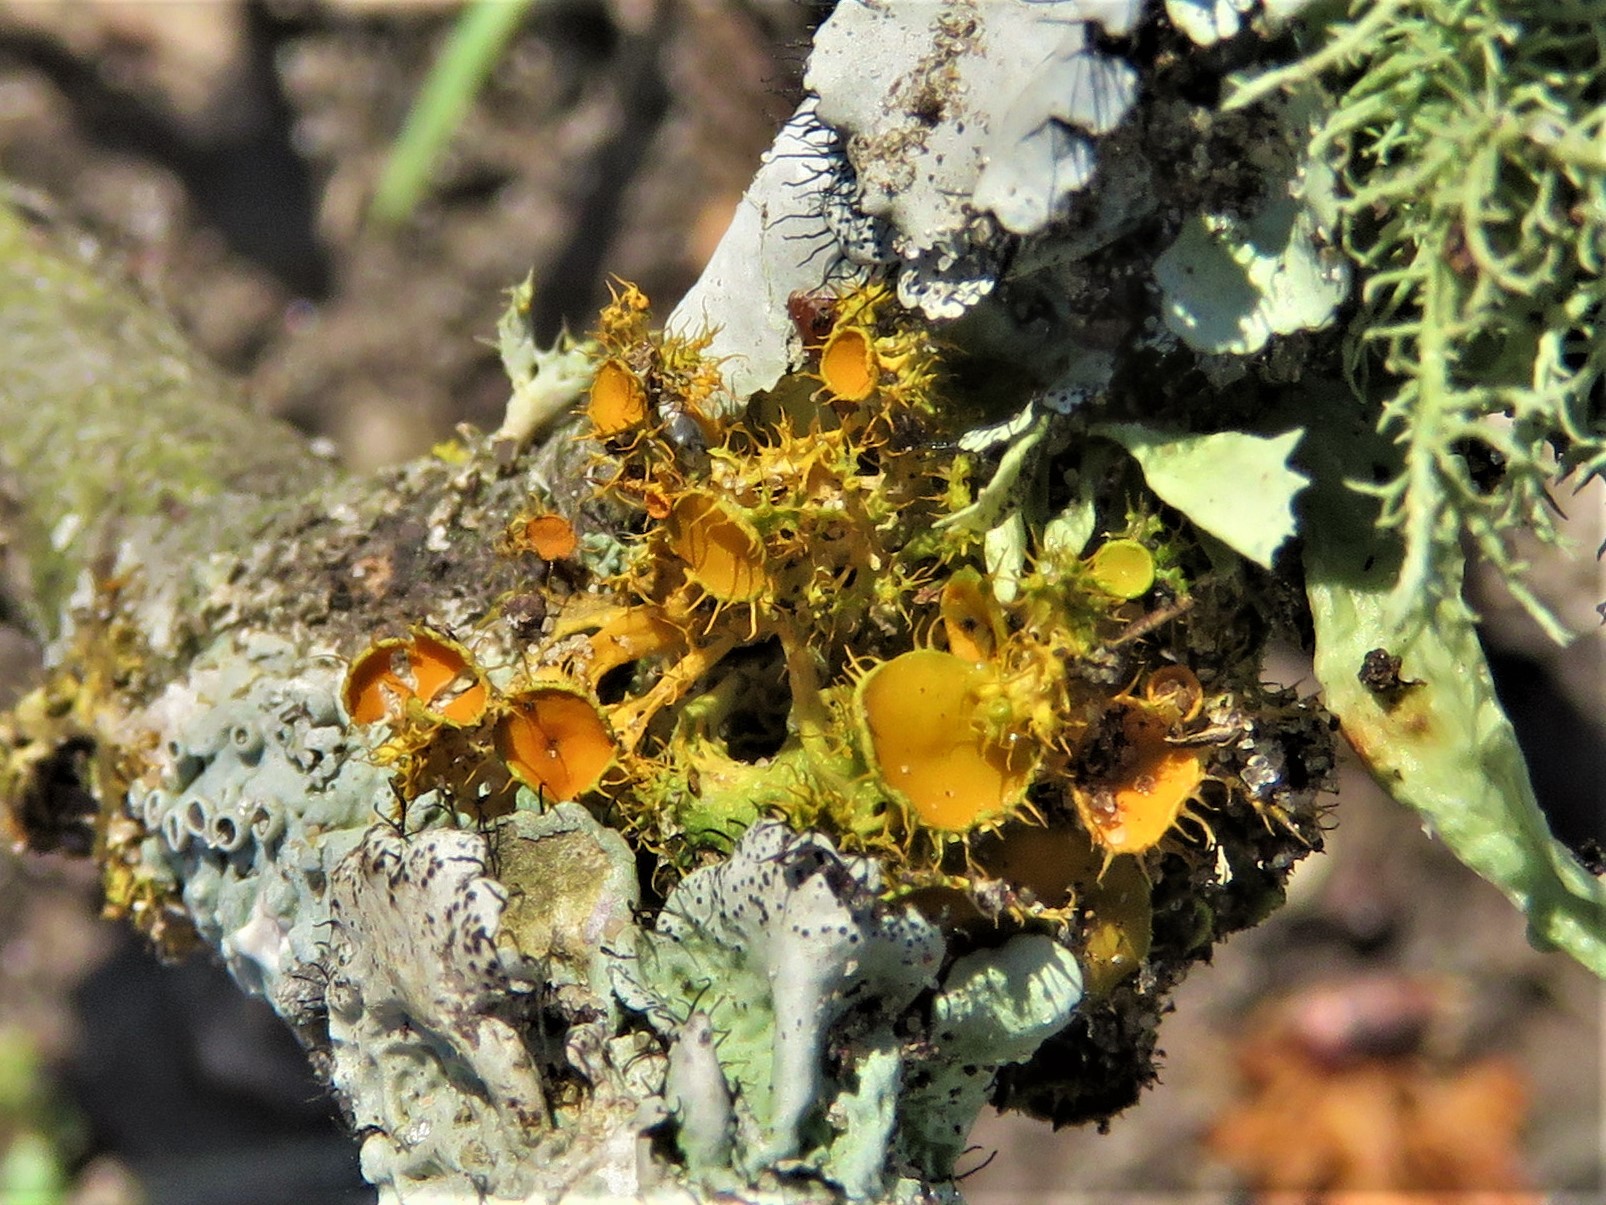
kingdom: Fungi
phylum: Ascomycota
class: Lecanoromycetes
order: Teloschistales
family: Teloschistaceae
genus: Niorma
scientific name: Niorma chrysophthalma
